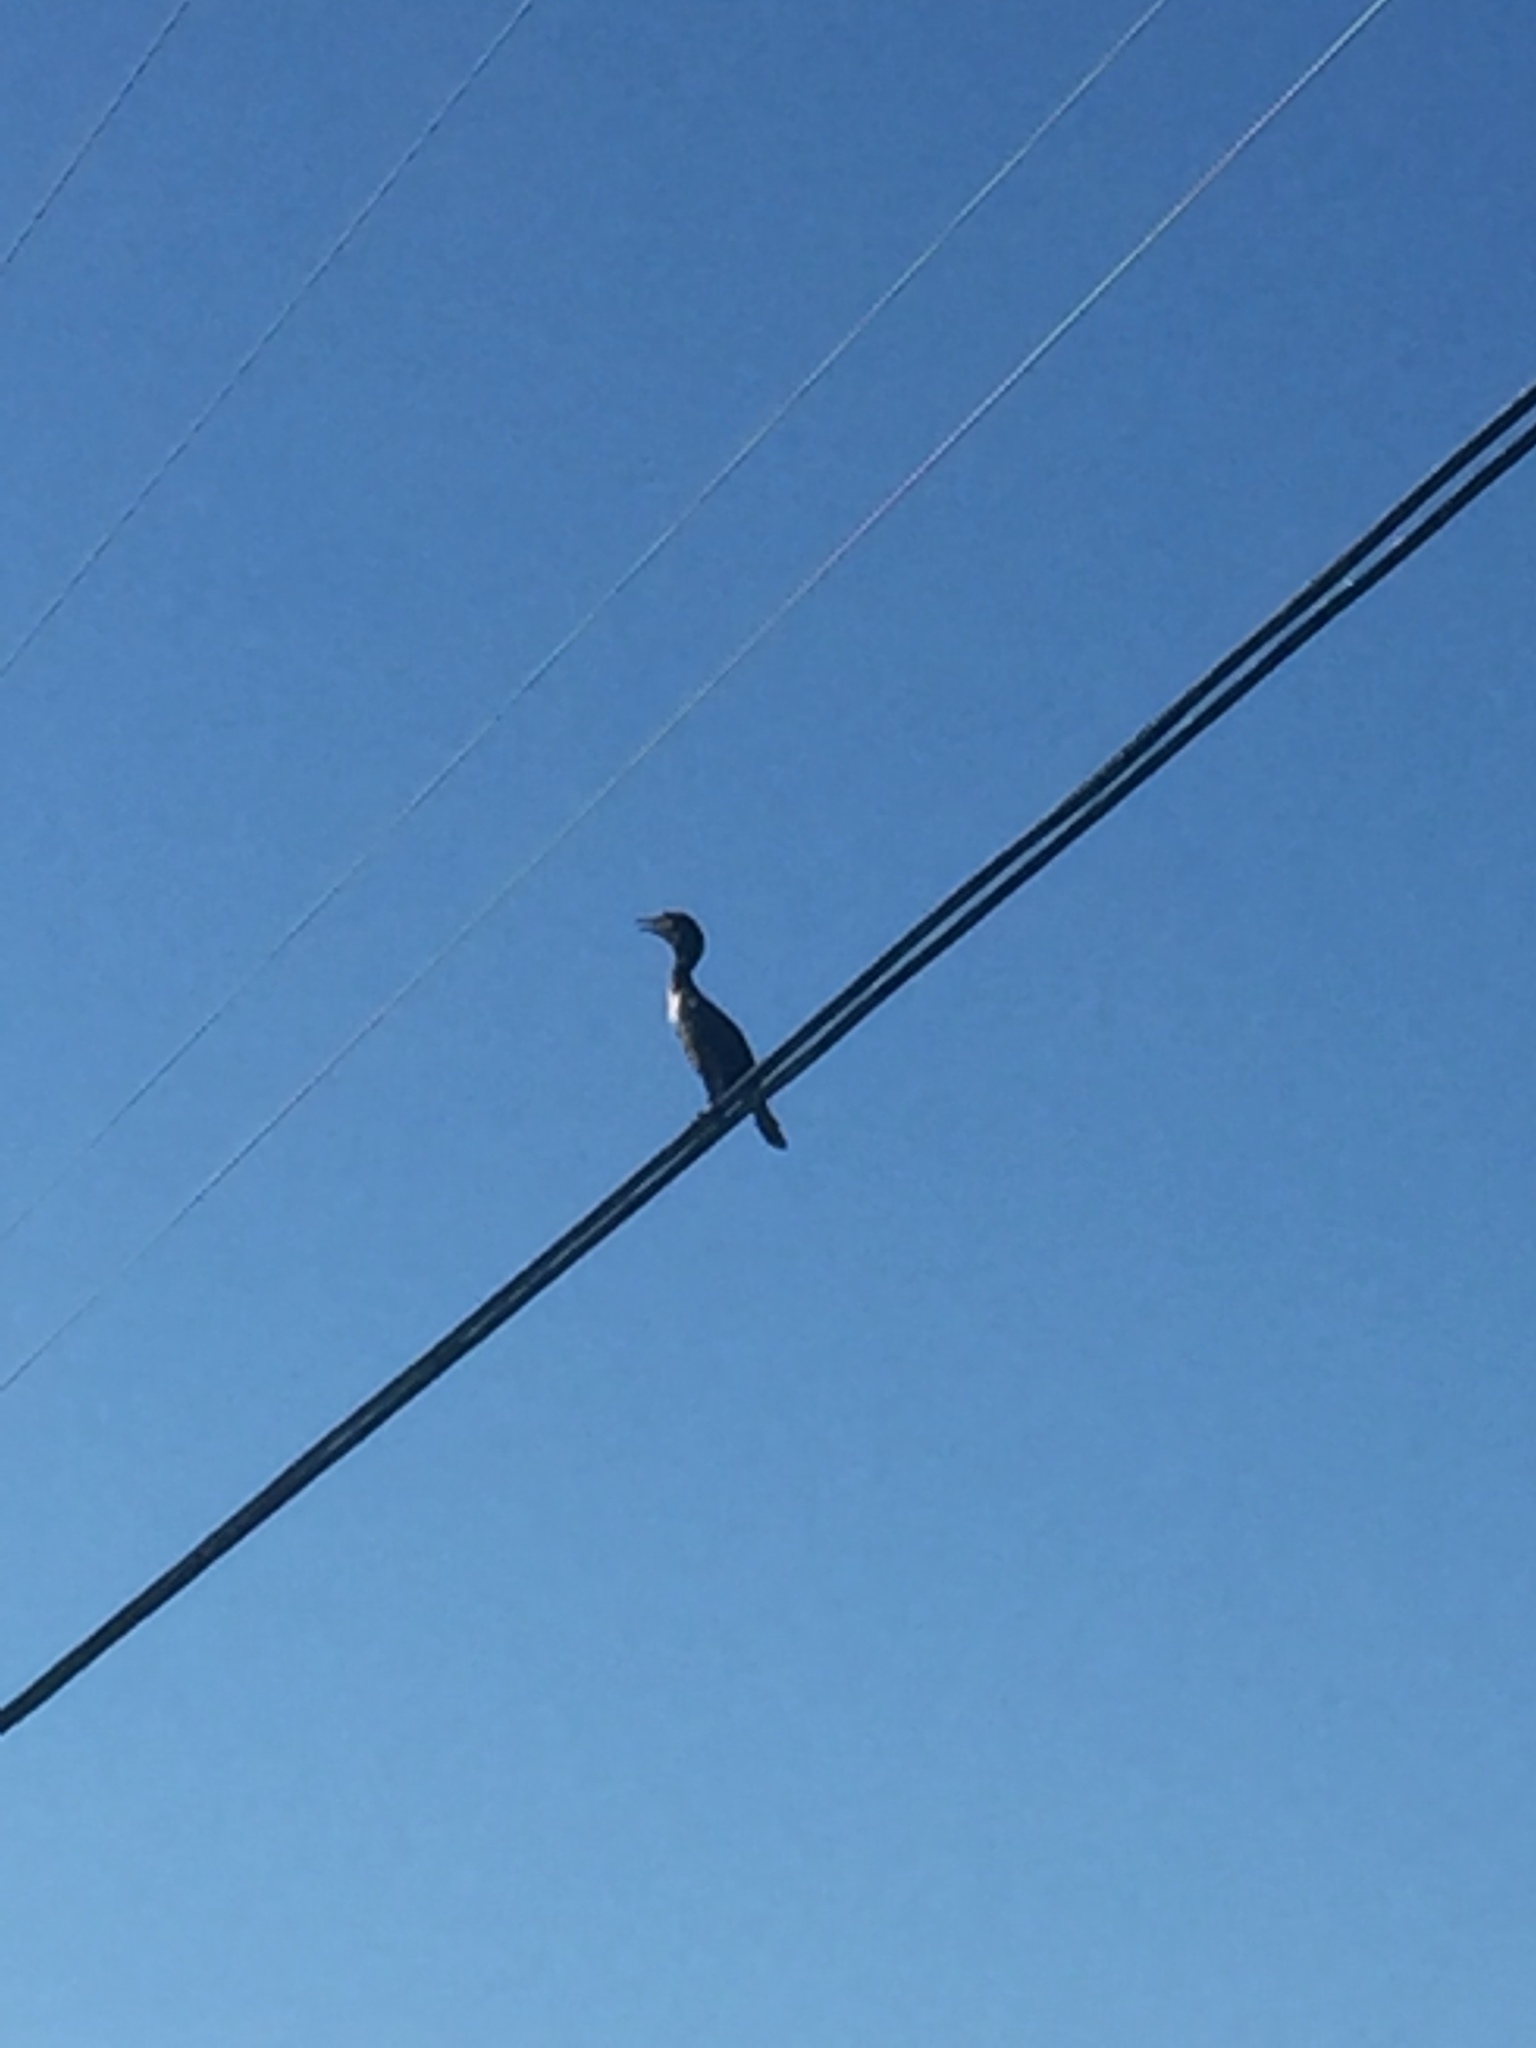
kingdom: Animalia
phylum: Chordata
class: Aves
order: Suliformes
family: Phalacrocoracidae
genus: Phalacrocorax
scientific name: Phalacrocorax auritus
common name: Double-crested cormorant
